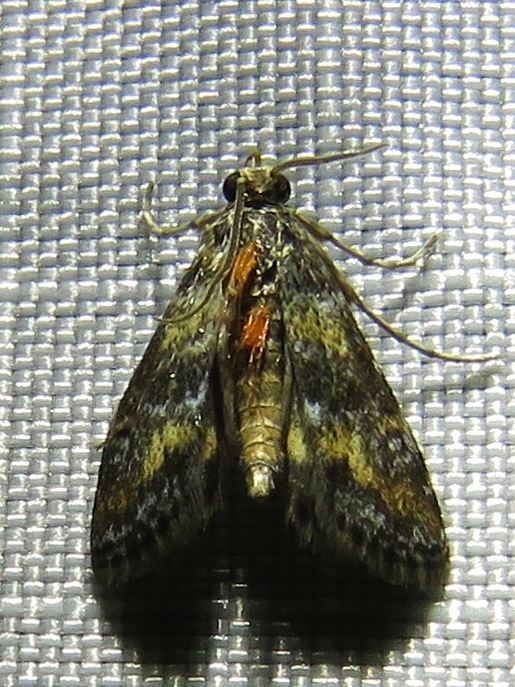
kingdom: Animalia
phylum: Arthropoda
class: Insecta
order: Lepidoptera
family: Crambidae
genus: Elophila
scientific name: Elophila obliteralis
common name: Waterlily leafcutter moth
